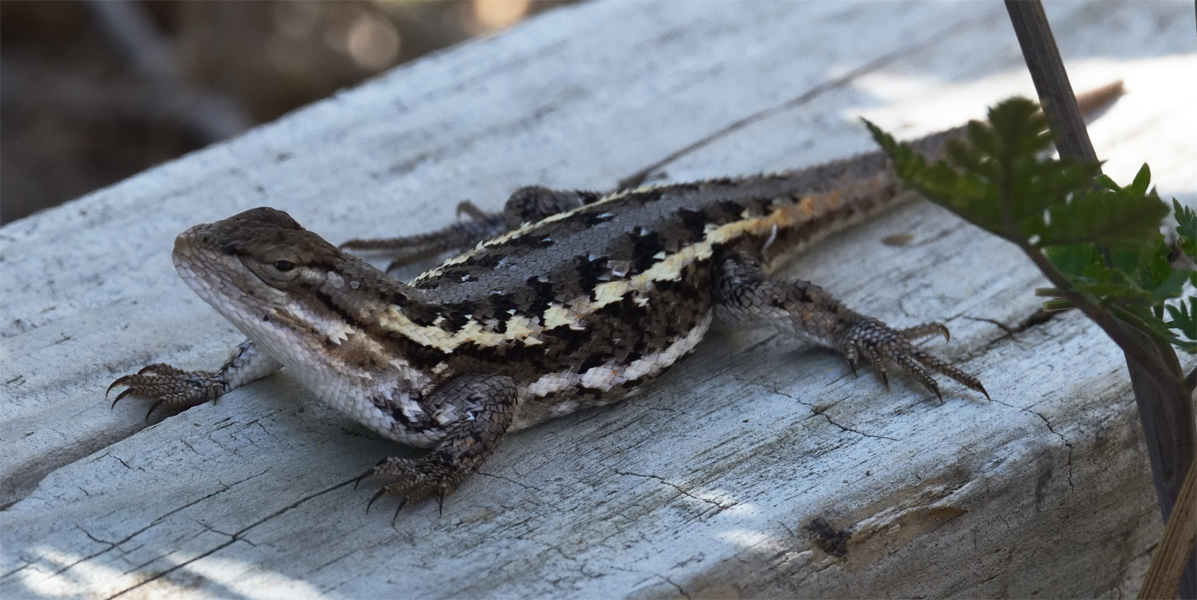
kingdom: Animalia
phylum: Chordata
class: Squamata
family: Phrynosomatidae
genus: Sceloporus
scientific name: Sceloporus consobrinus
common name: Southern prairie lizard
